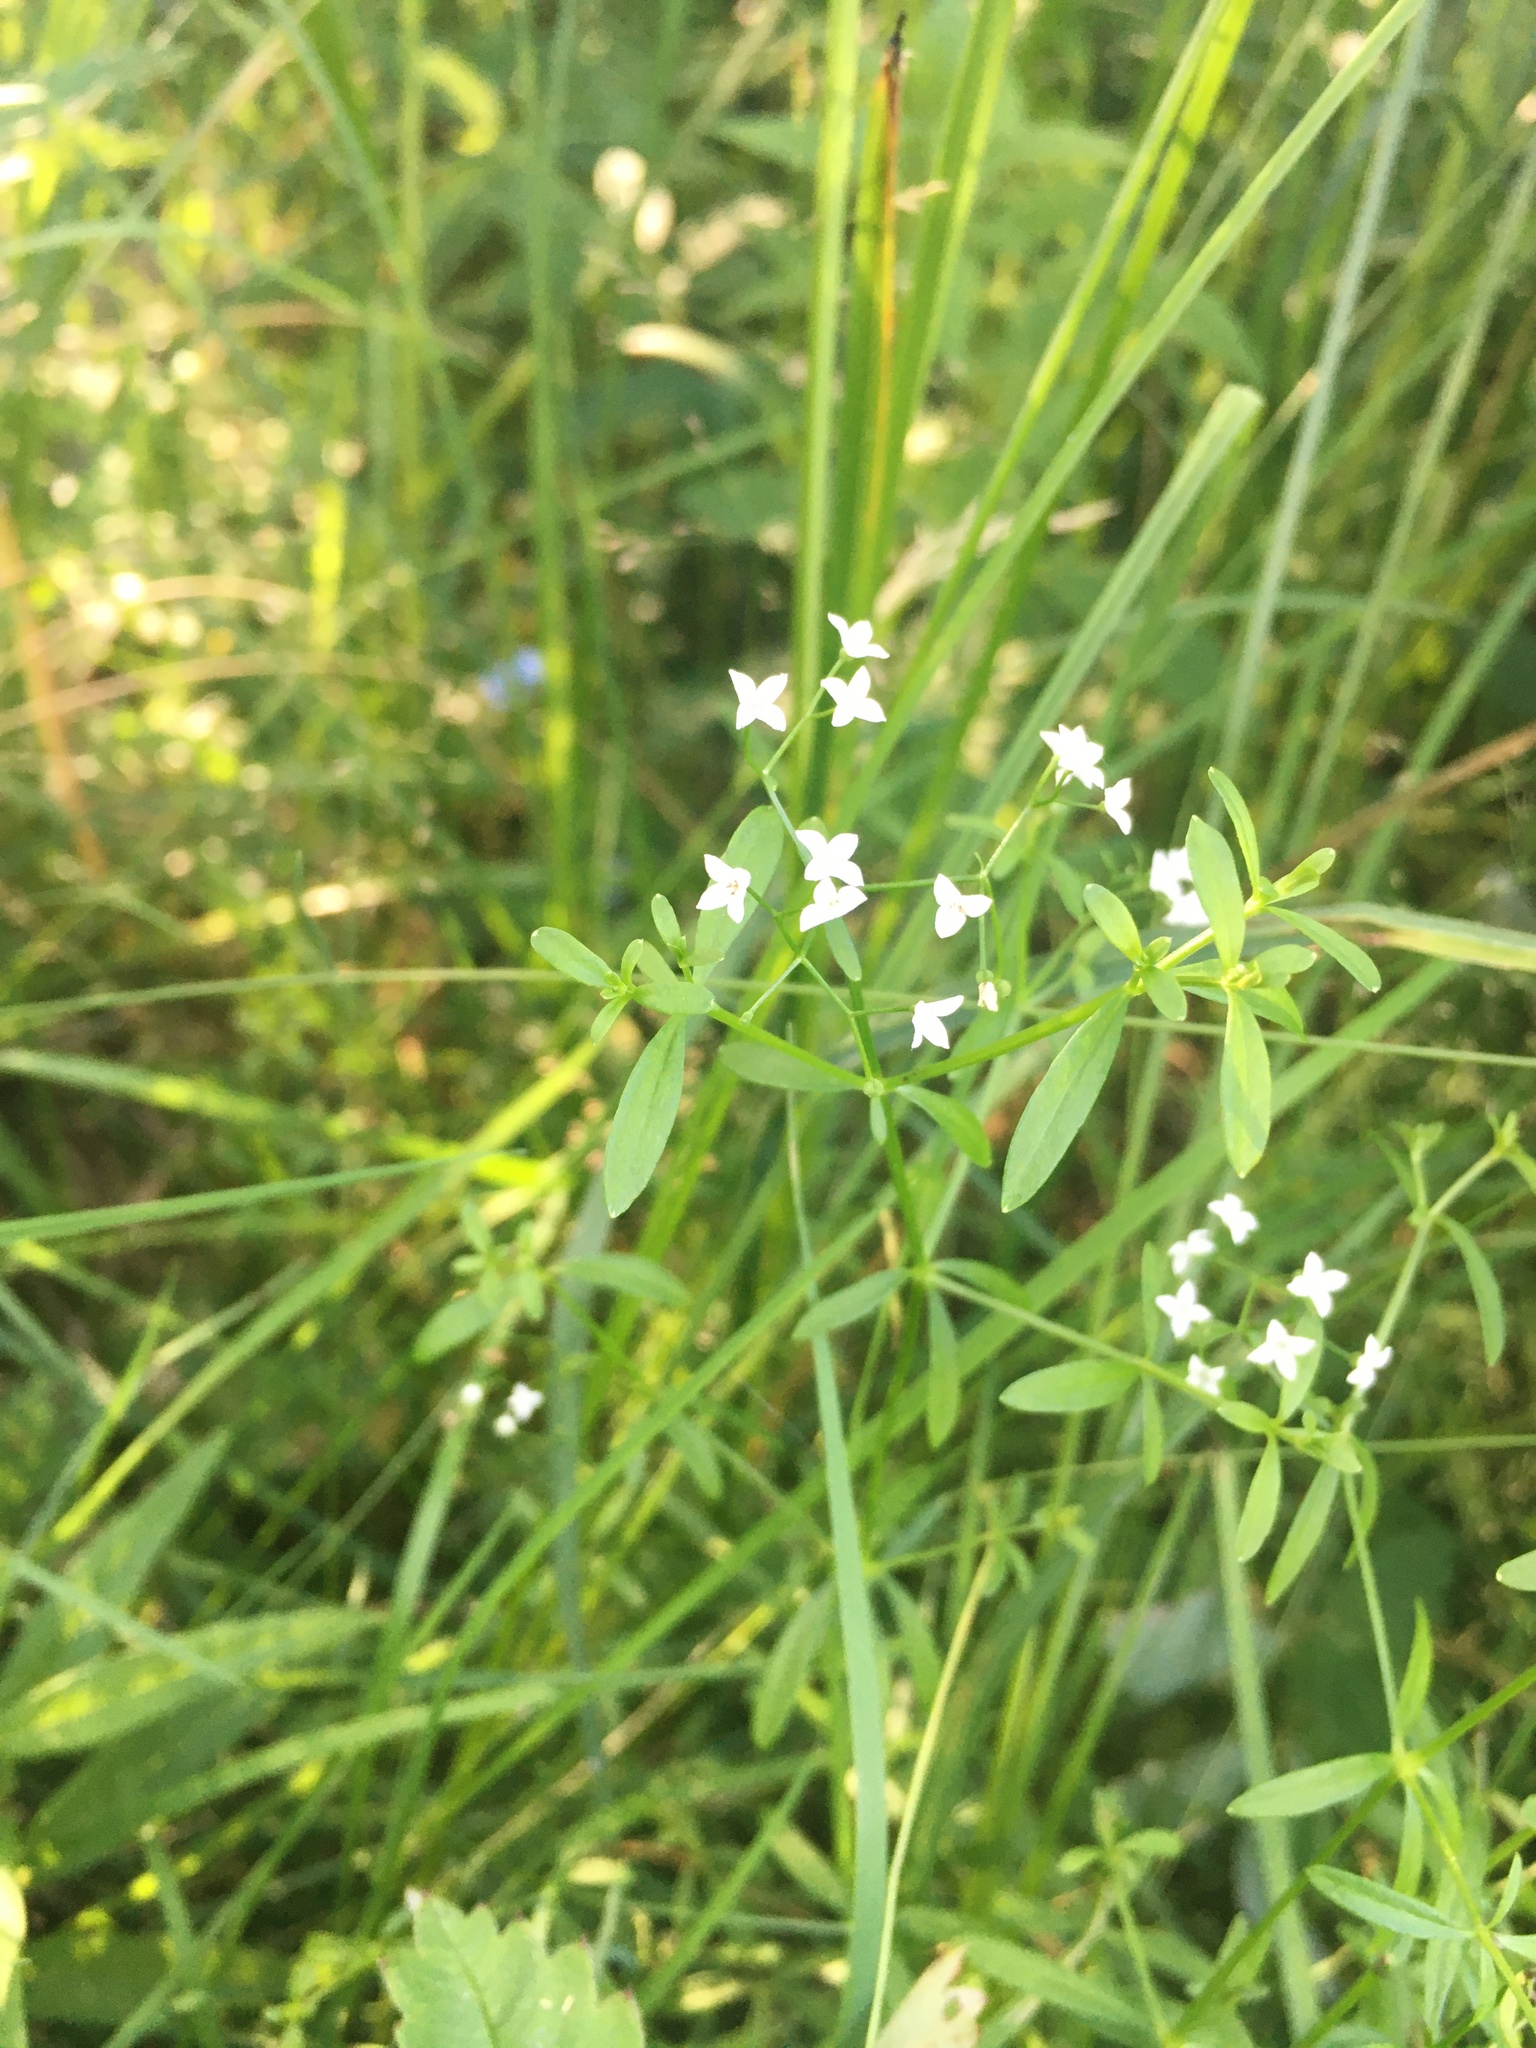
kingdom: Plantae
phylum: Tracheophyta
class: Magnoliopsida
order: Gentianales
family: Rubiaceae
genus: Galium
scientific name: Galium palustre
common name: Common marsh-bedstraw
